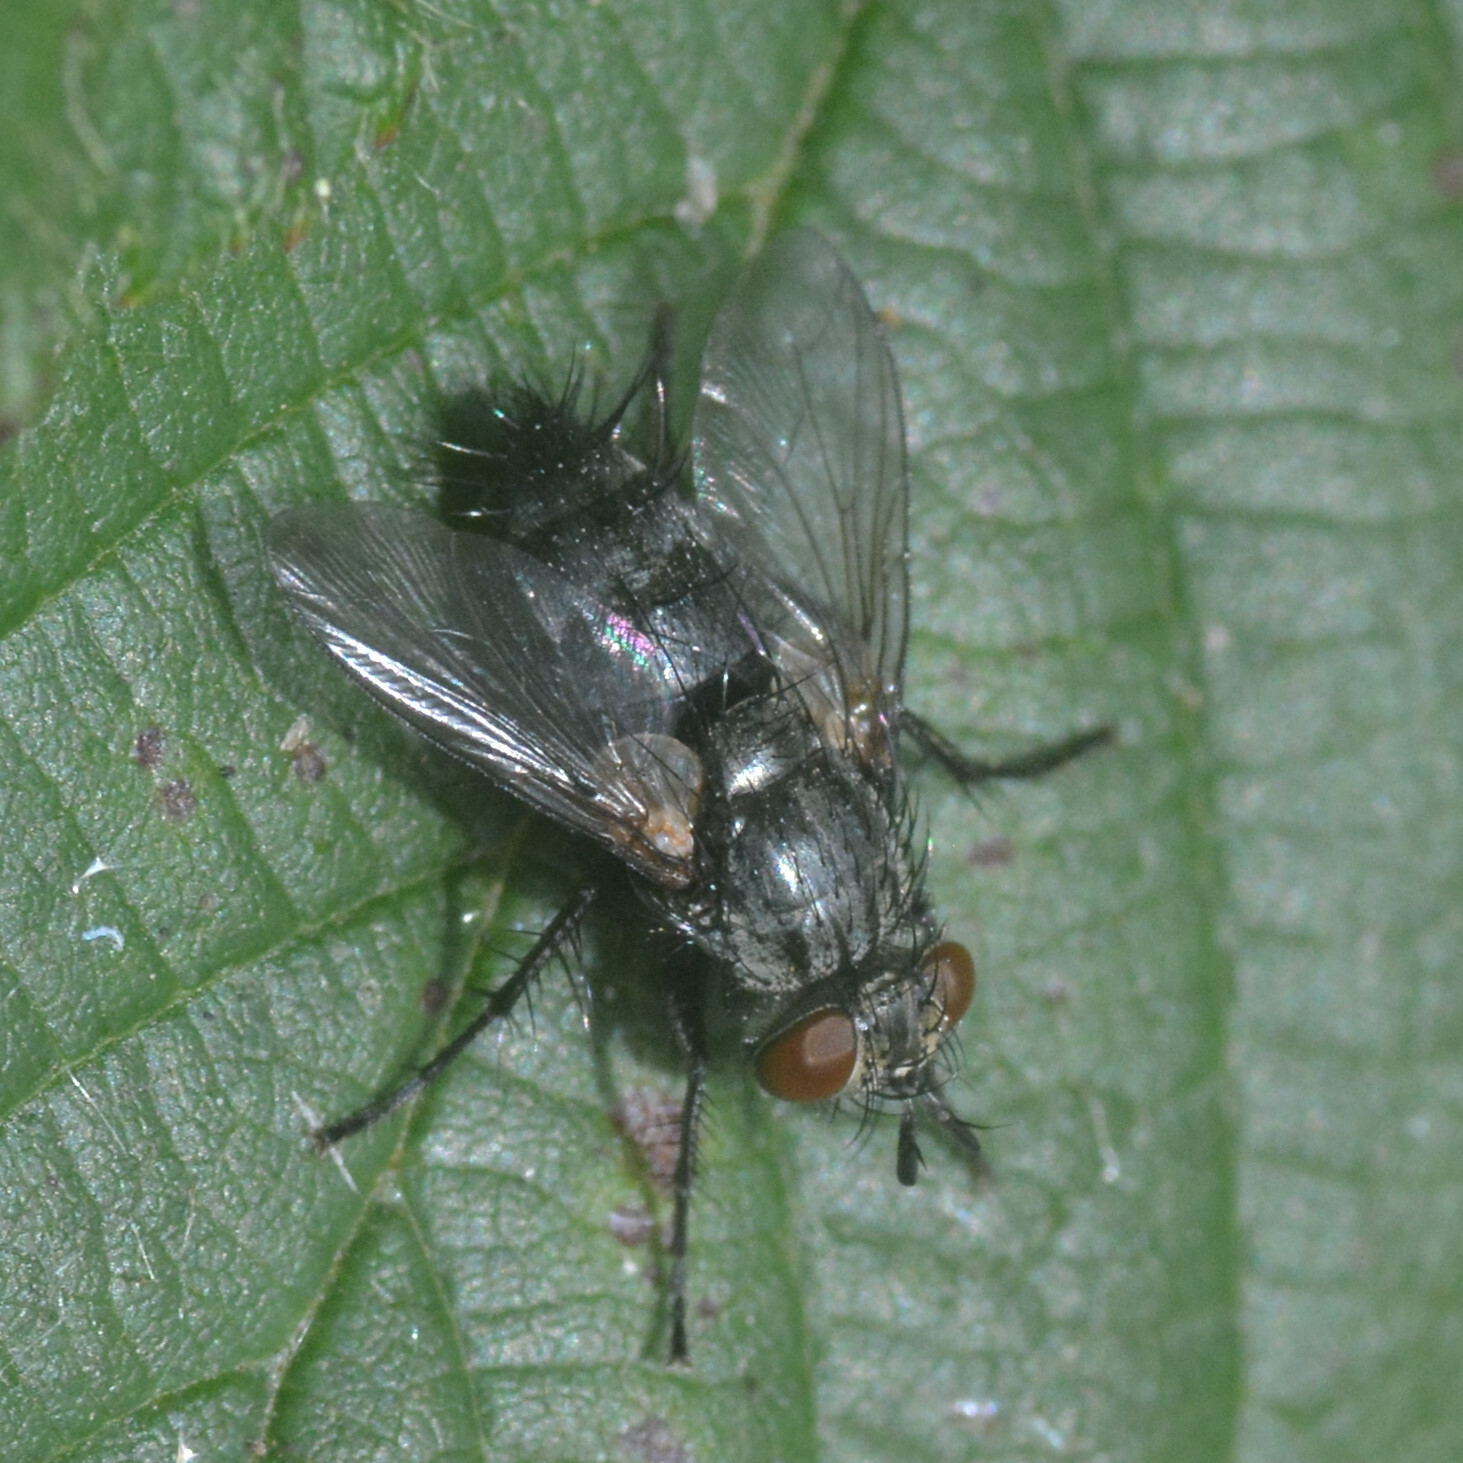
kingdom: Animalia
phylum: Arthropoda
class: Insecta
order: Diptera
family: Tachinidae
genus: Voria
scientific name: Voria ruralis
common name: Parasitic fly
